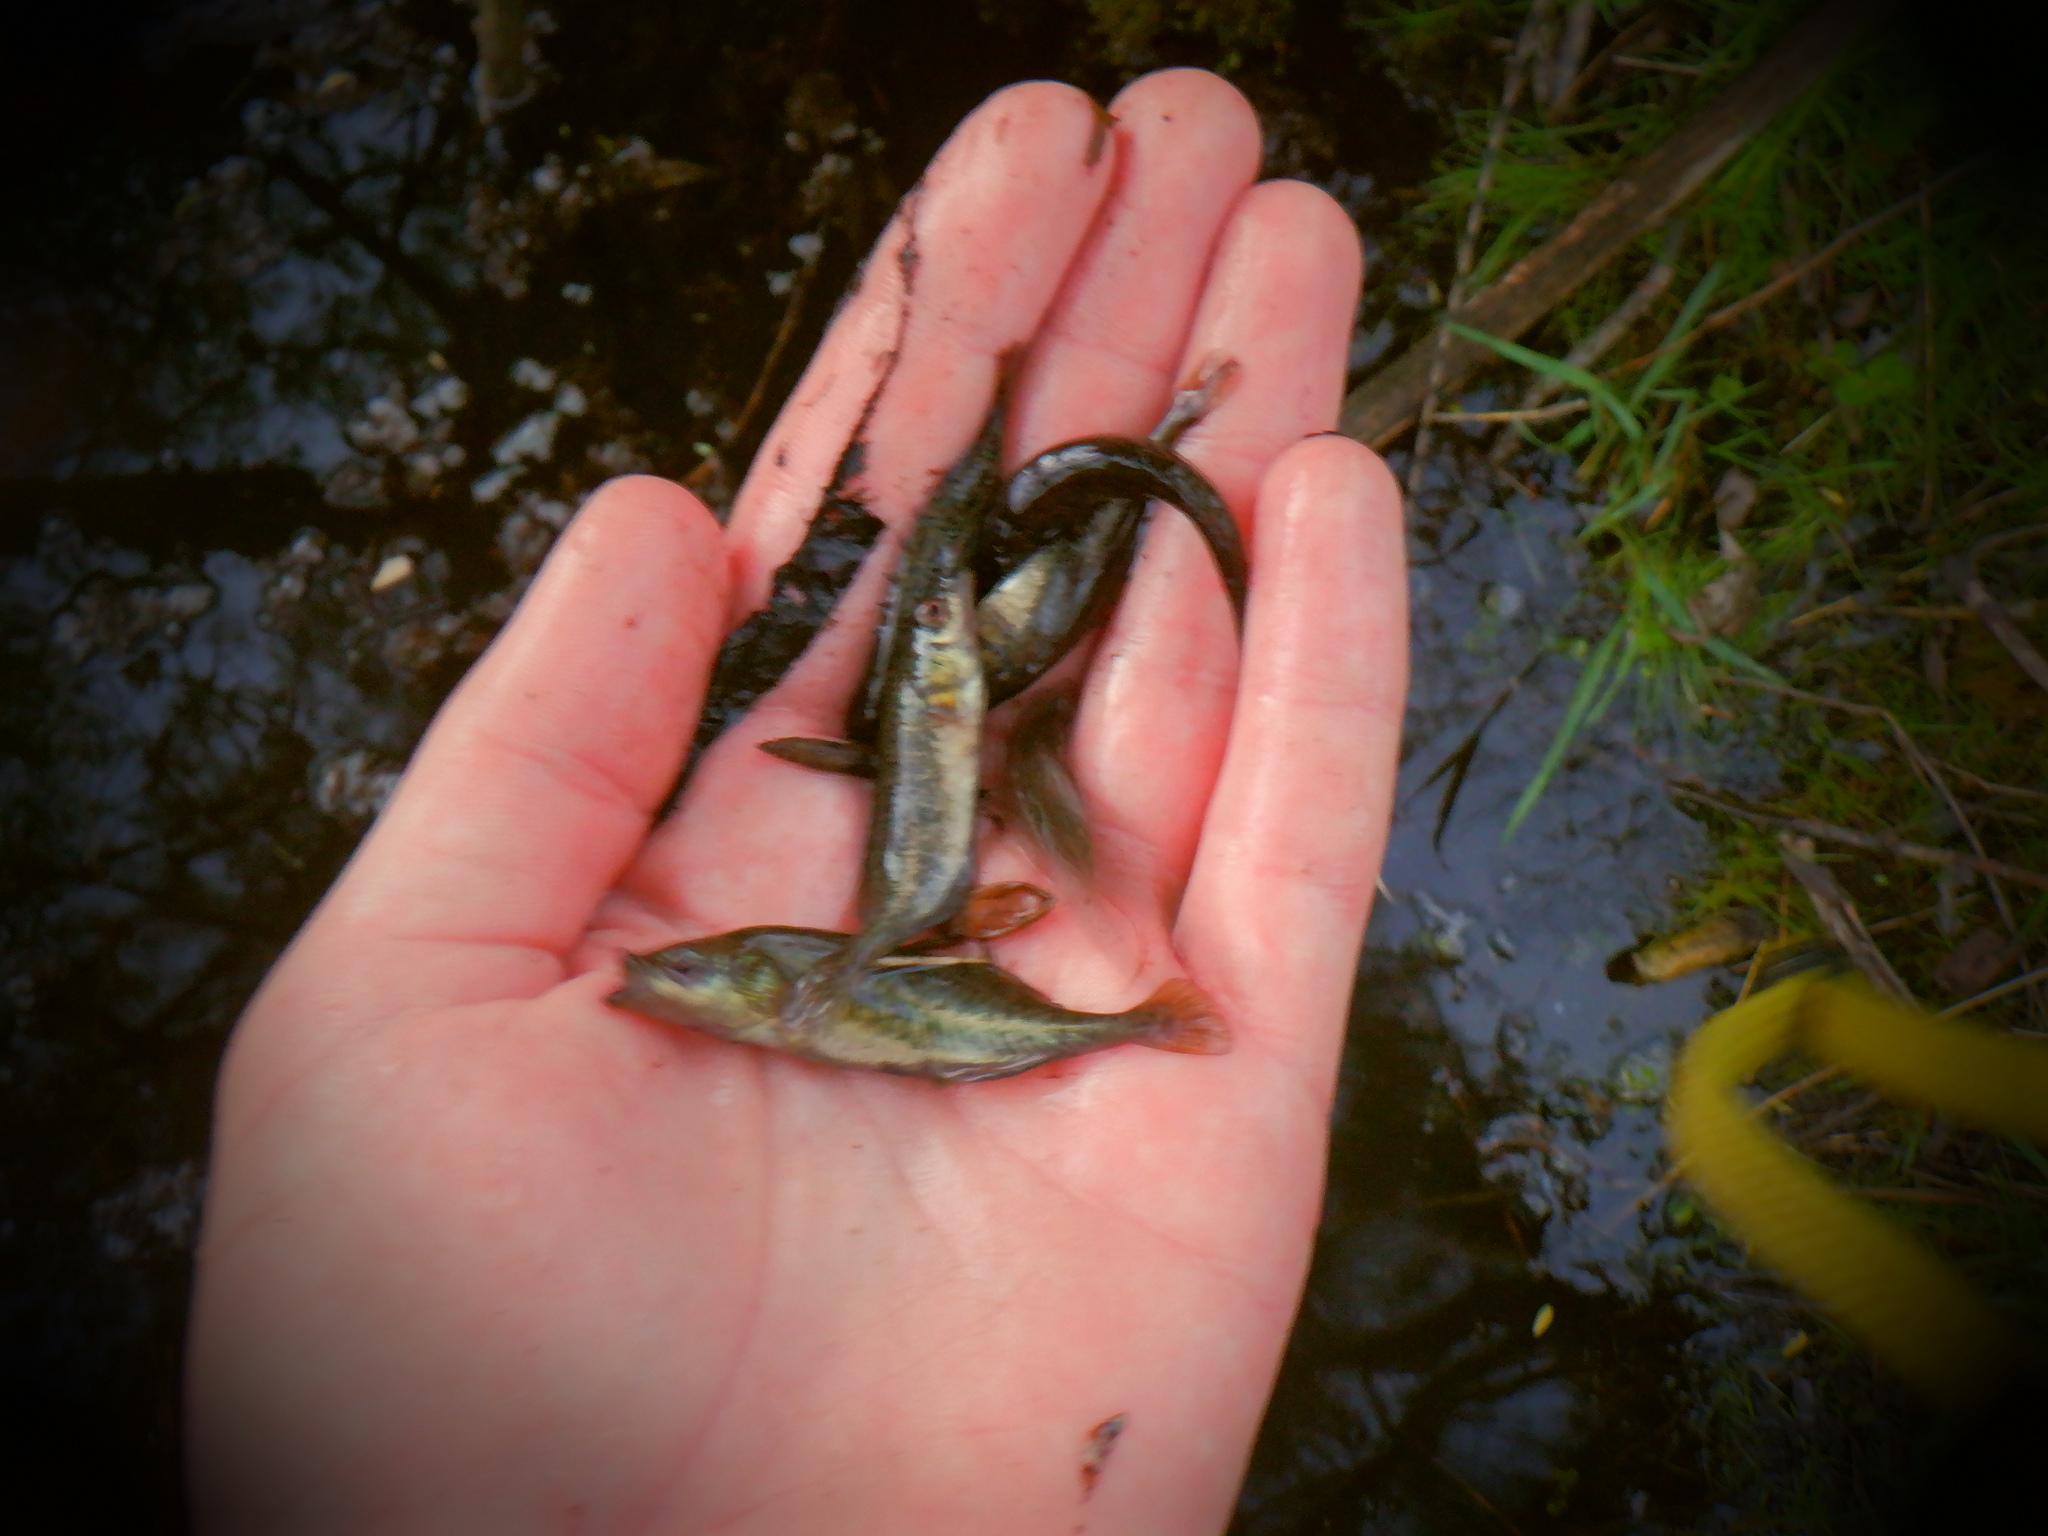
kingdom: Animalia
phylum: Chordata
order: Gasterosteiformes
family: Gasterosteidae
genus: Culaea
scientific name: Culaea inconstans
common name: Brook stickleback
